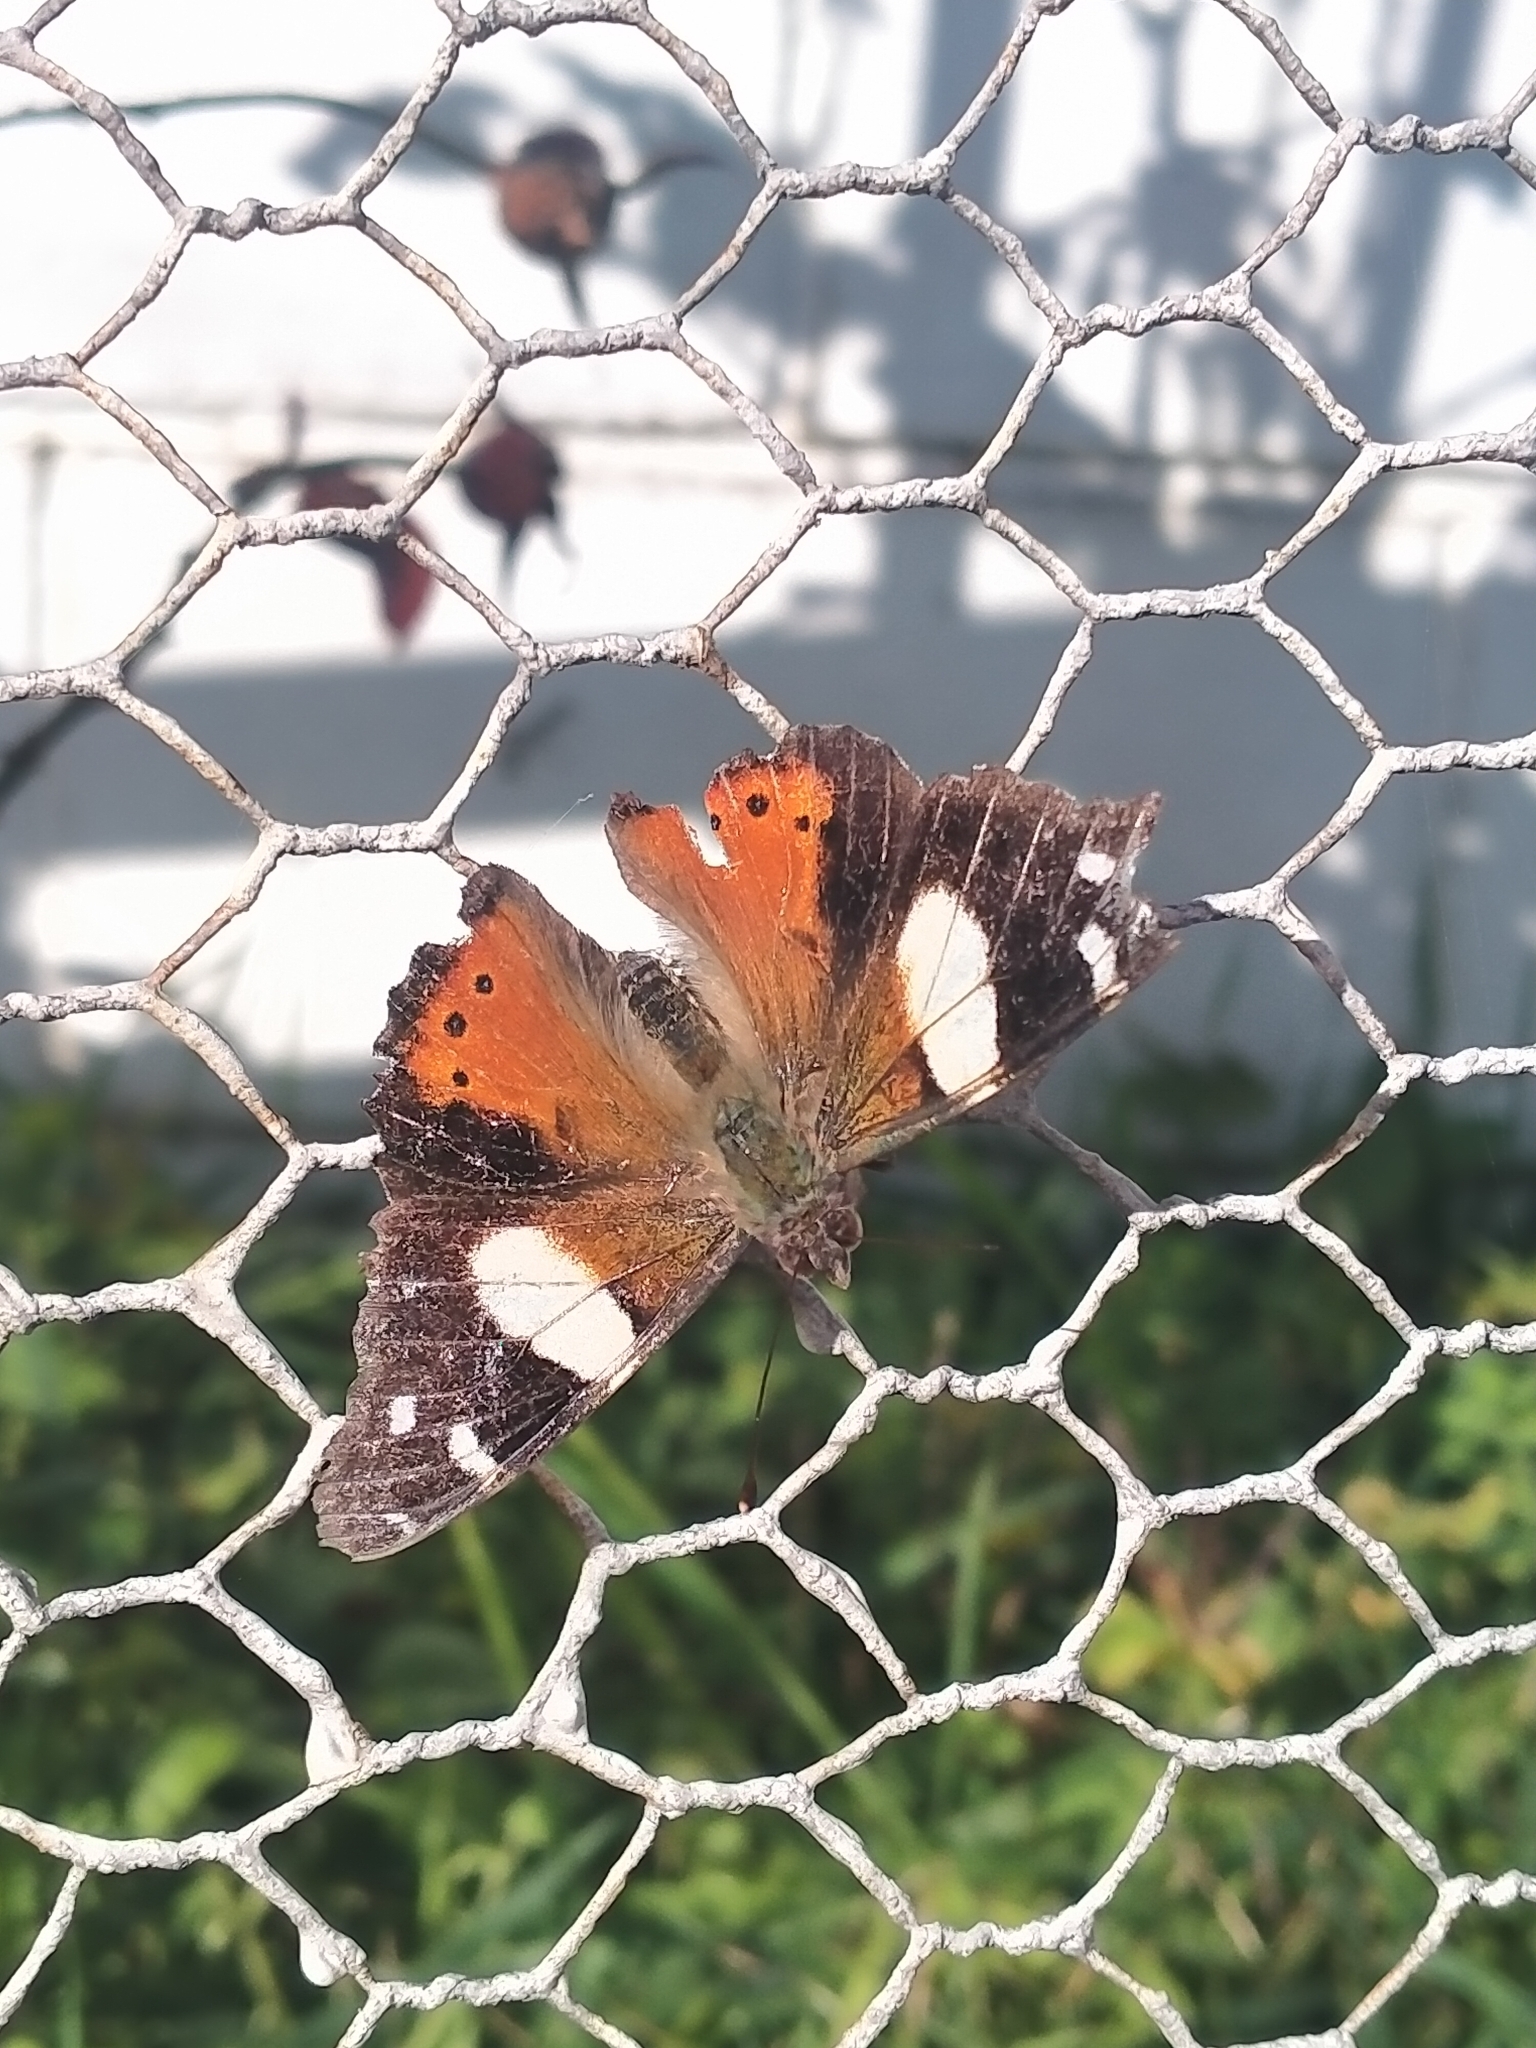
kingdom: Animalia
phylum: Arthropoda
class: Insecta
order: Lepidoptera
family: Nymphalidae
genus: Vanessa
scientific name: Vanessa itea
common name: Yellow admiral
